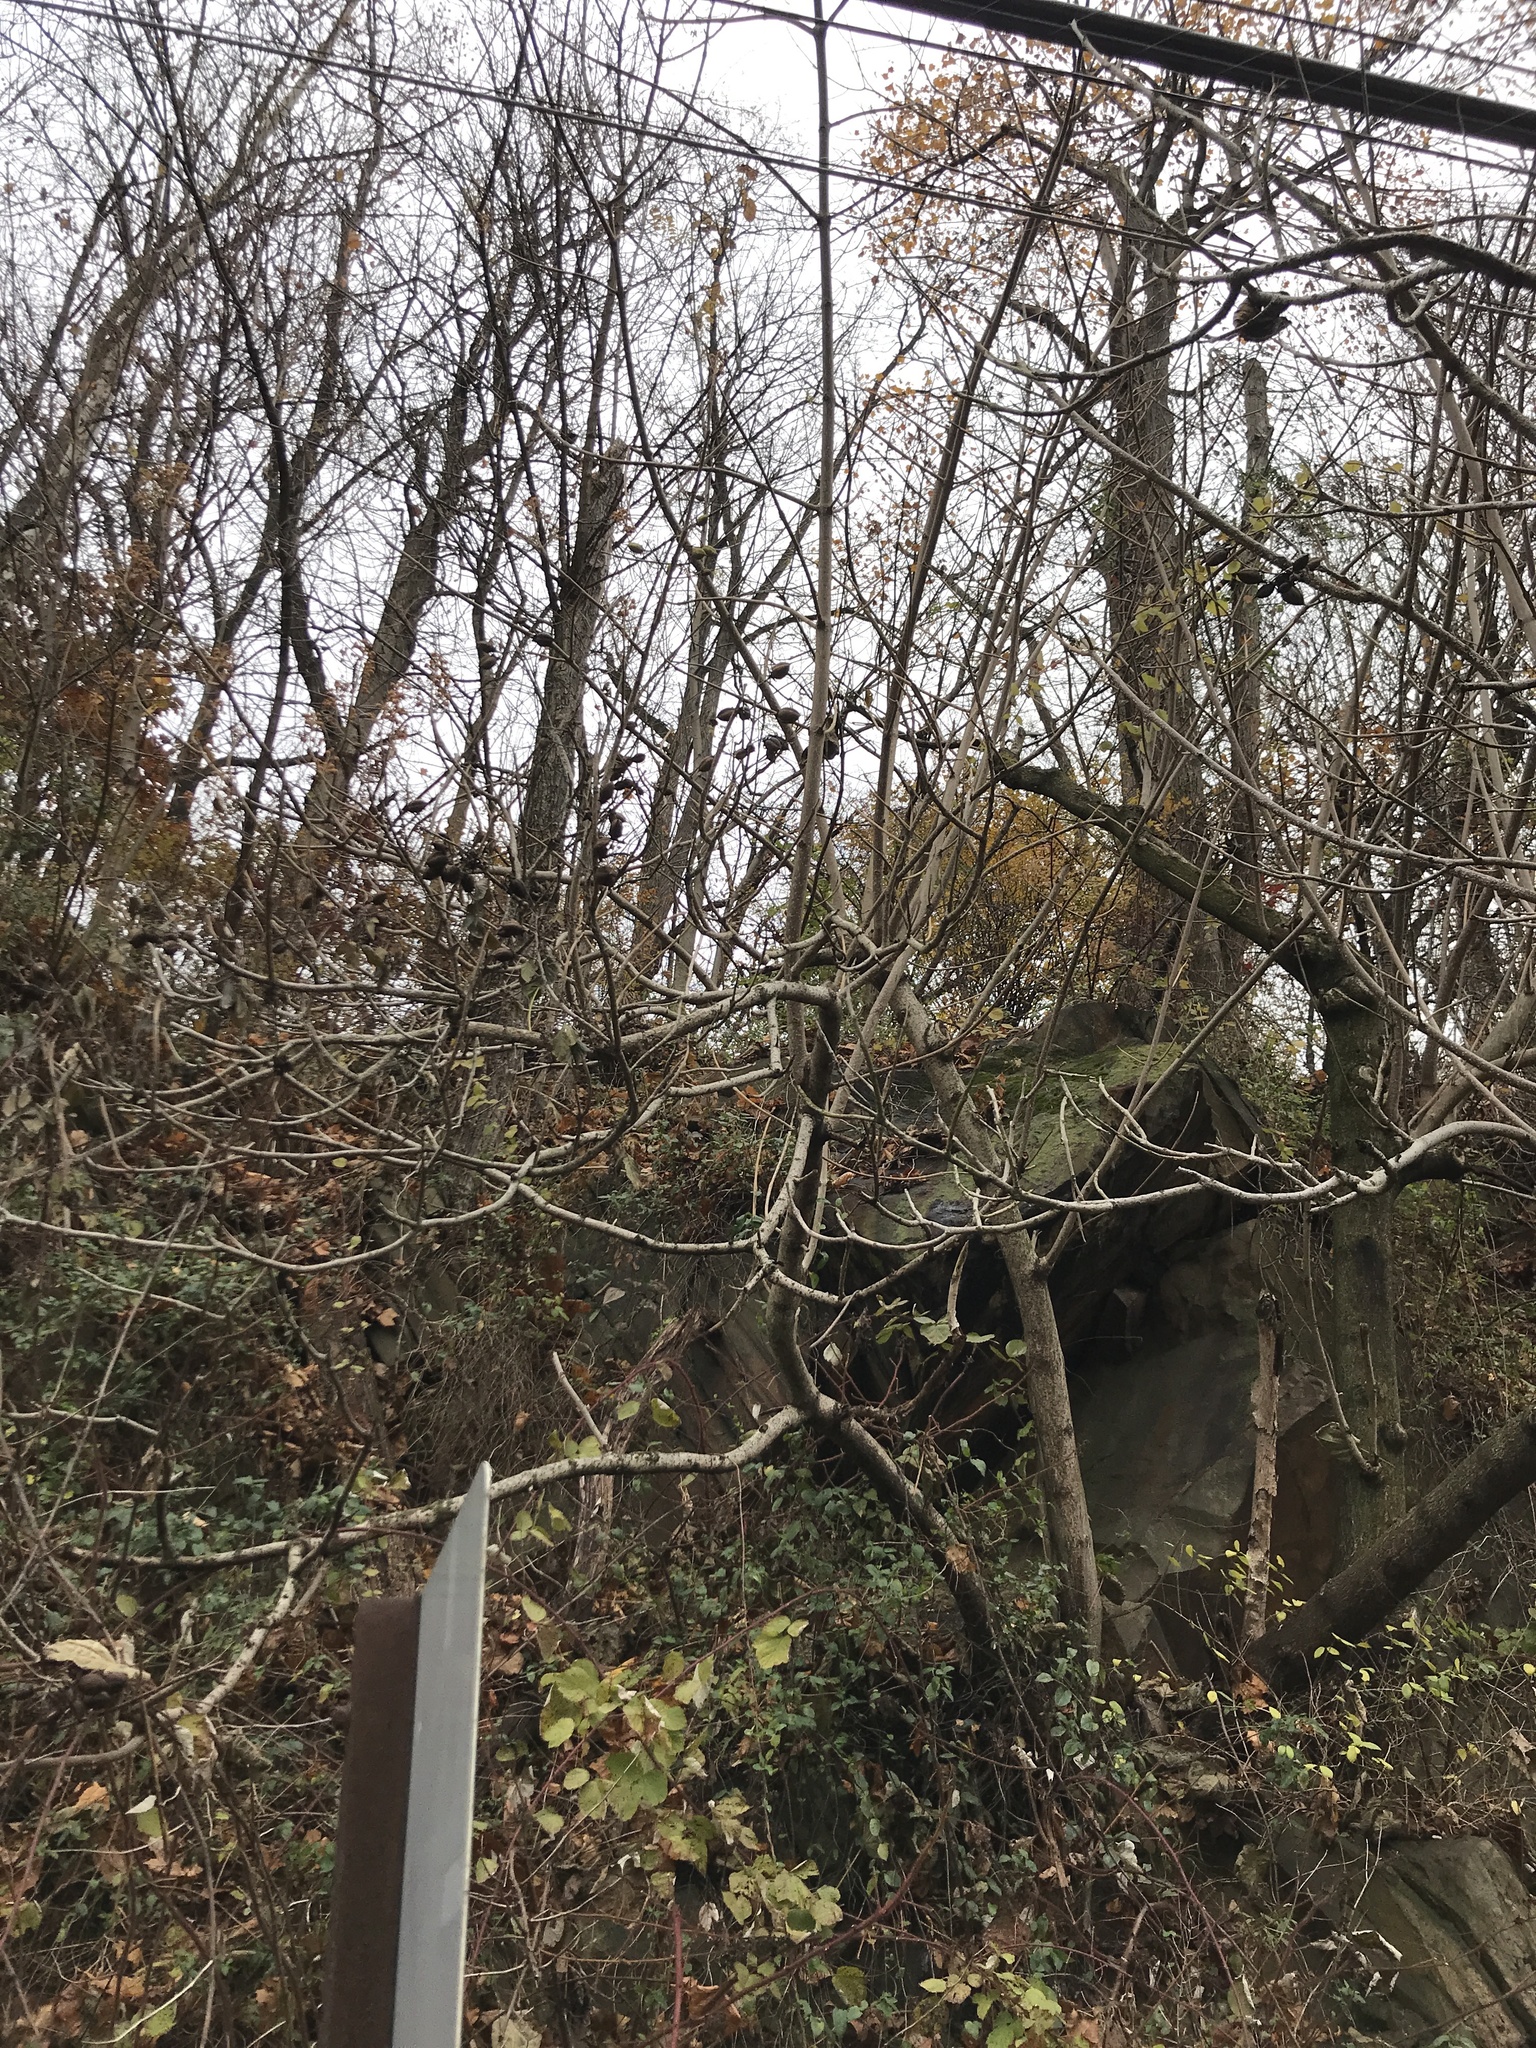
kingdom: Plantae
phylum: Tracheophyta
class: Magnoliopsida
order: Lamiales
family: Paulowniaceae
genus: Paulownia
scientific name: Paulownia tomentosa
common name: Foxglove-tree
